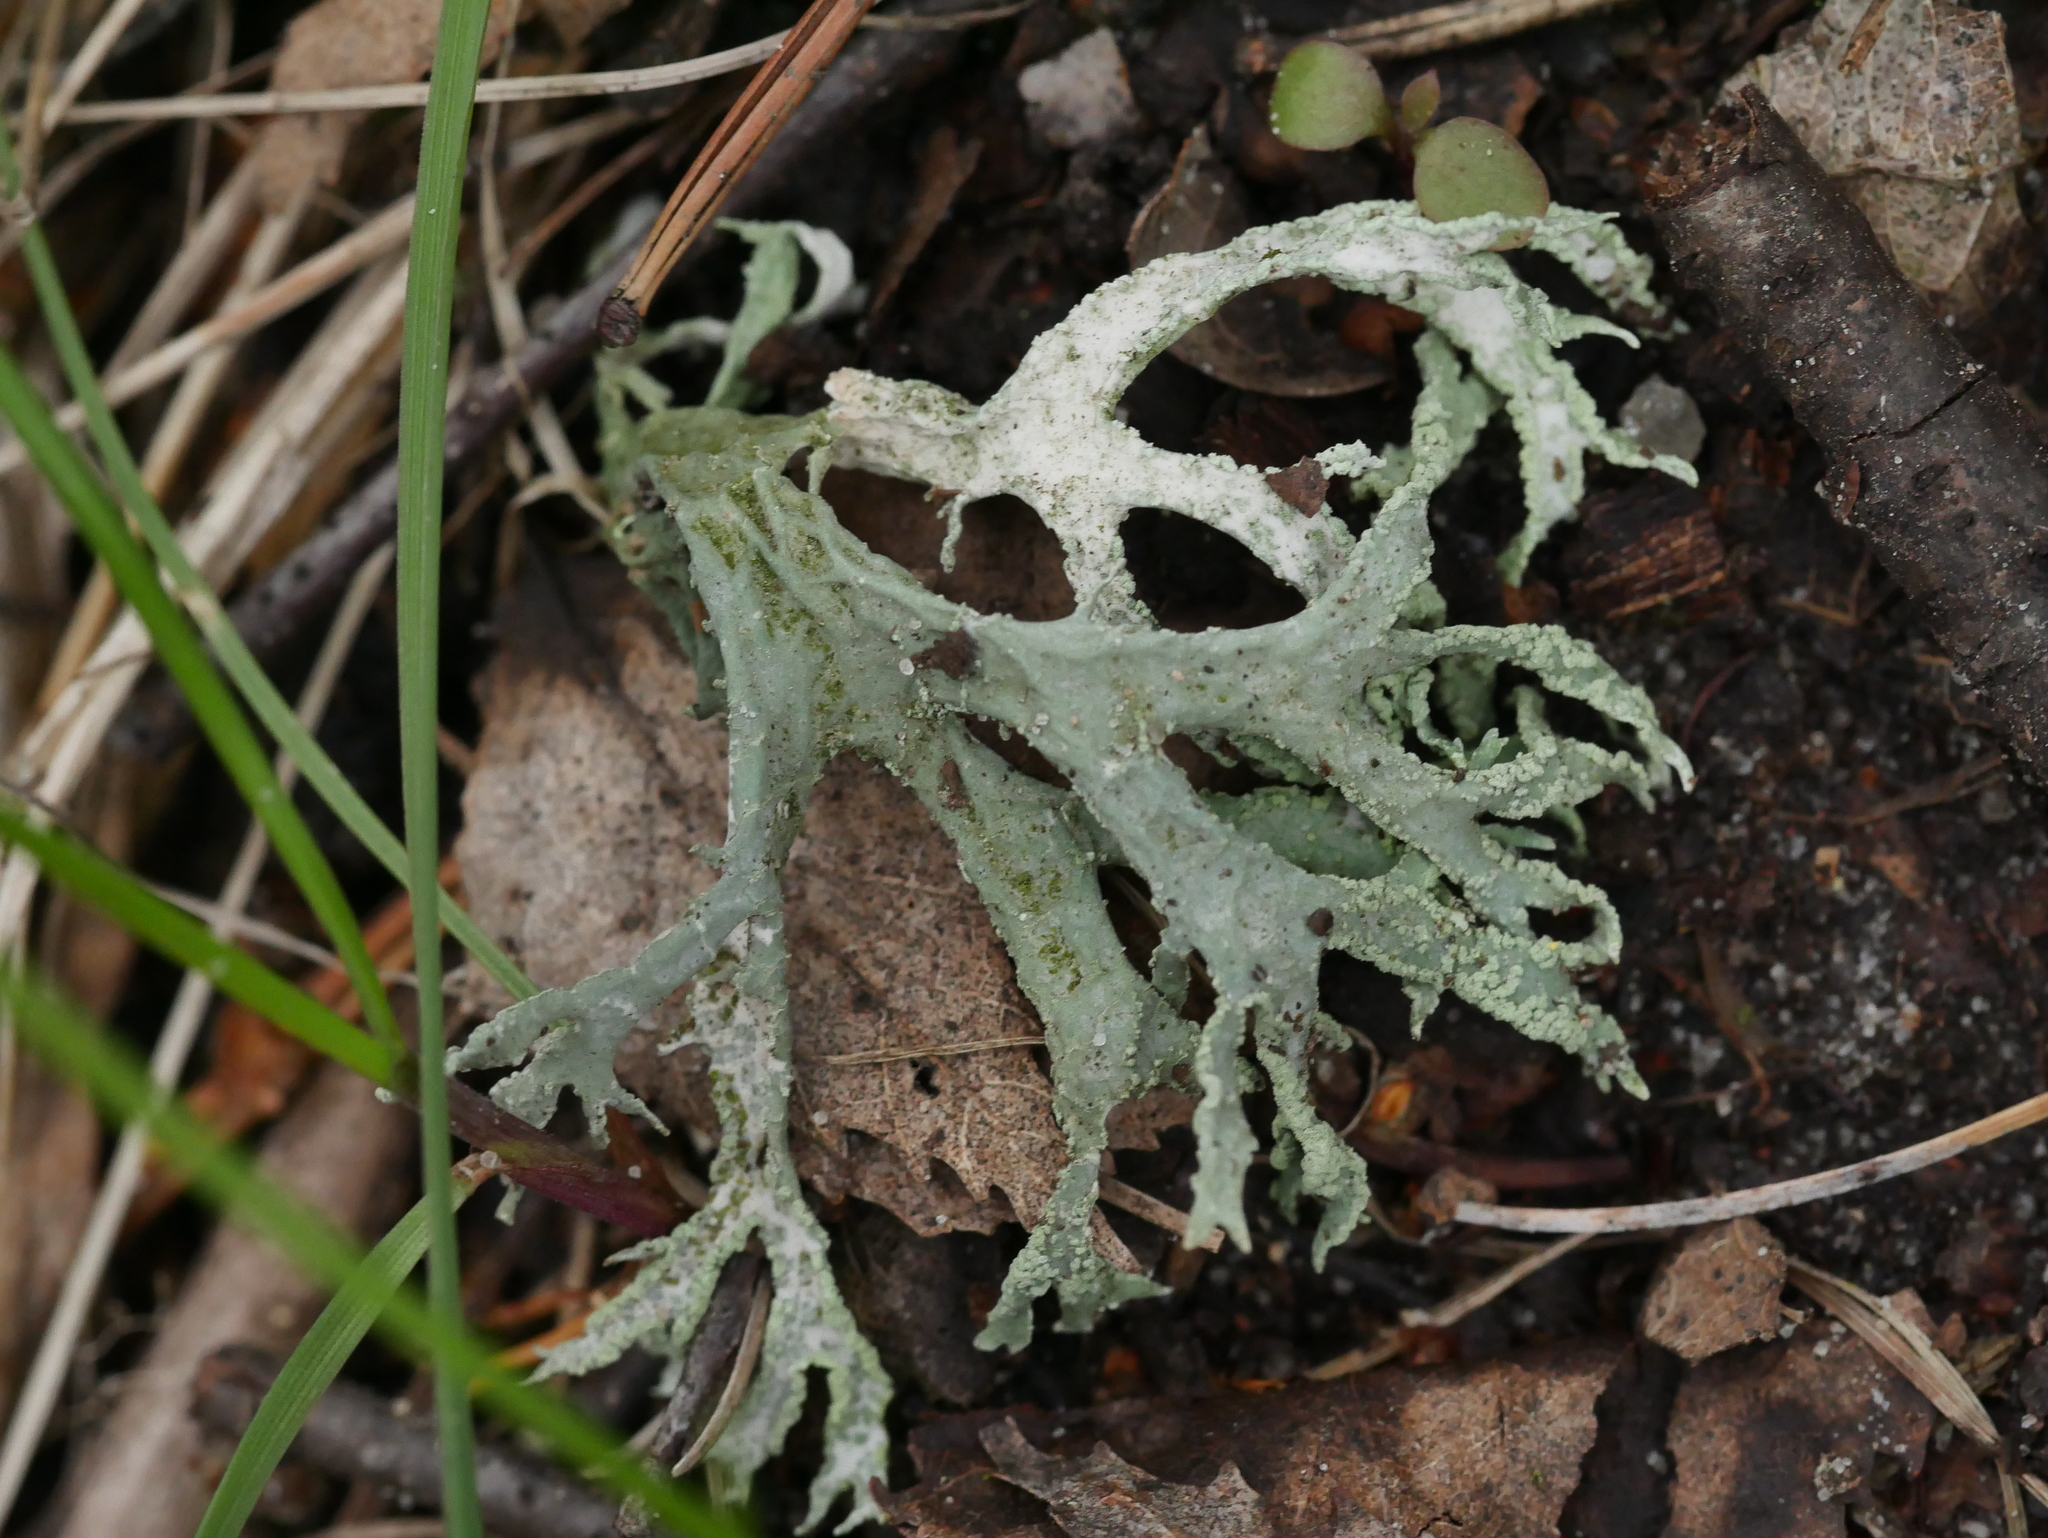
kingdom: Fungi
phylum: Ascomycota
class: Lecanoromycetes
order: Lecanorales
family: Parmeliaceae
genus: Evernia
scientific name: Evernia prunastri
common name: Oak moss
